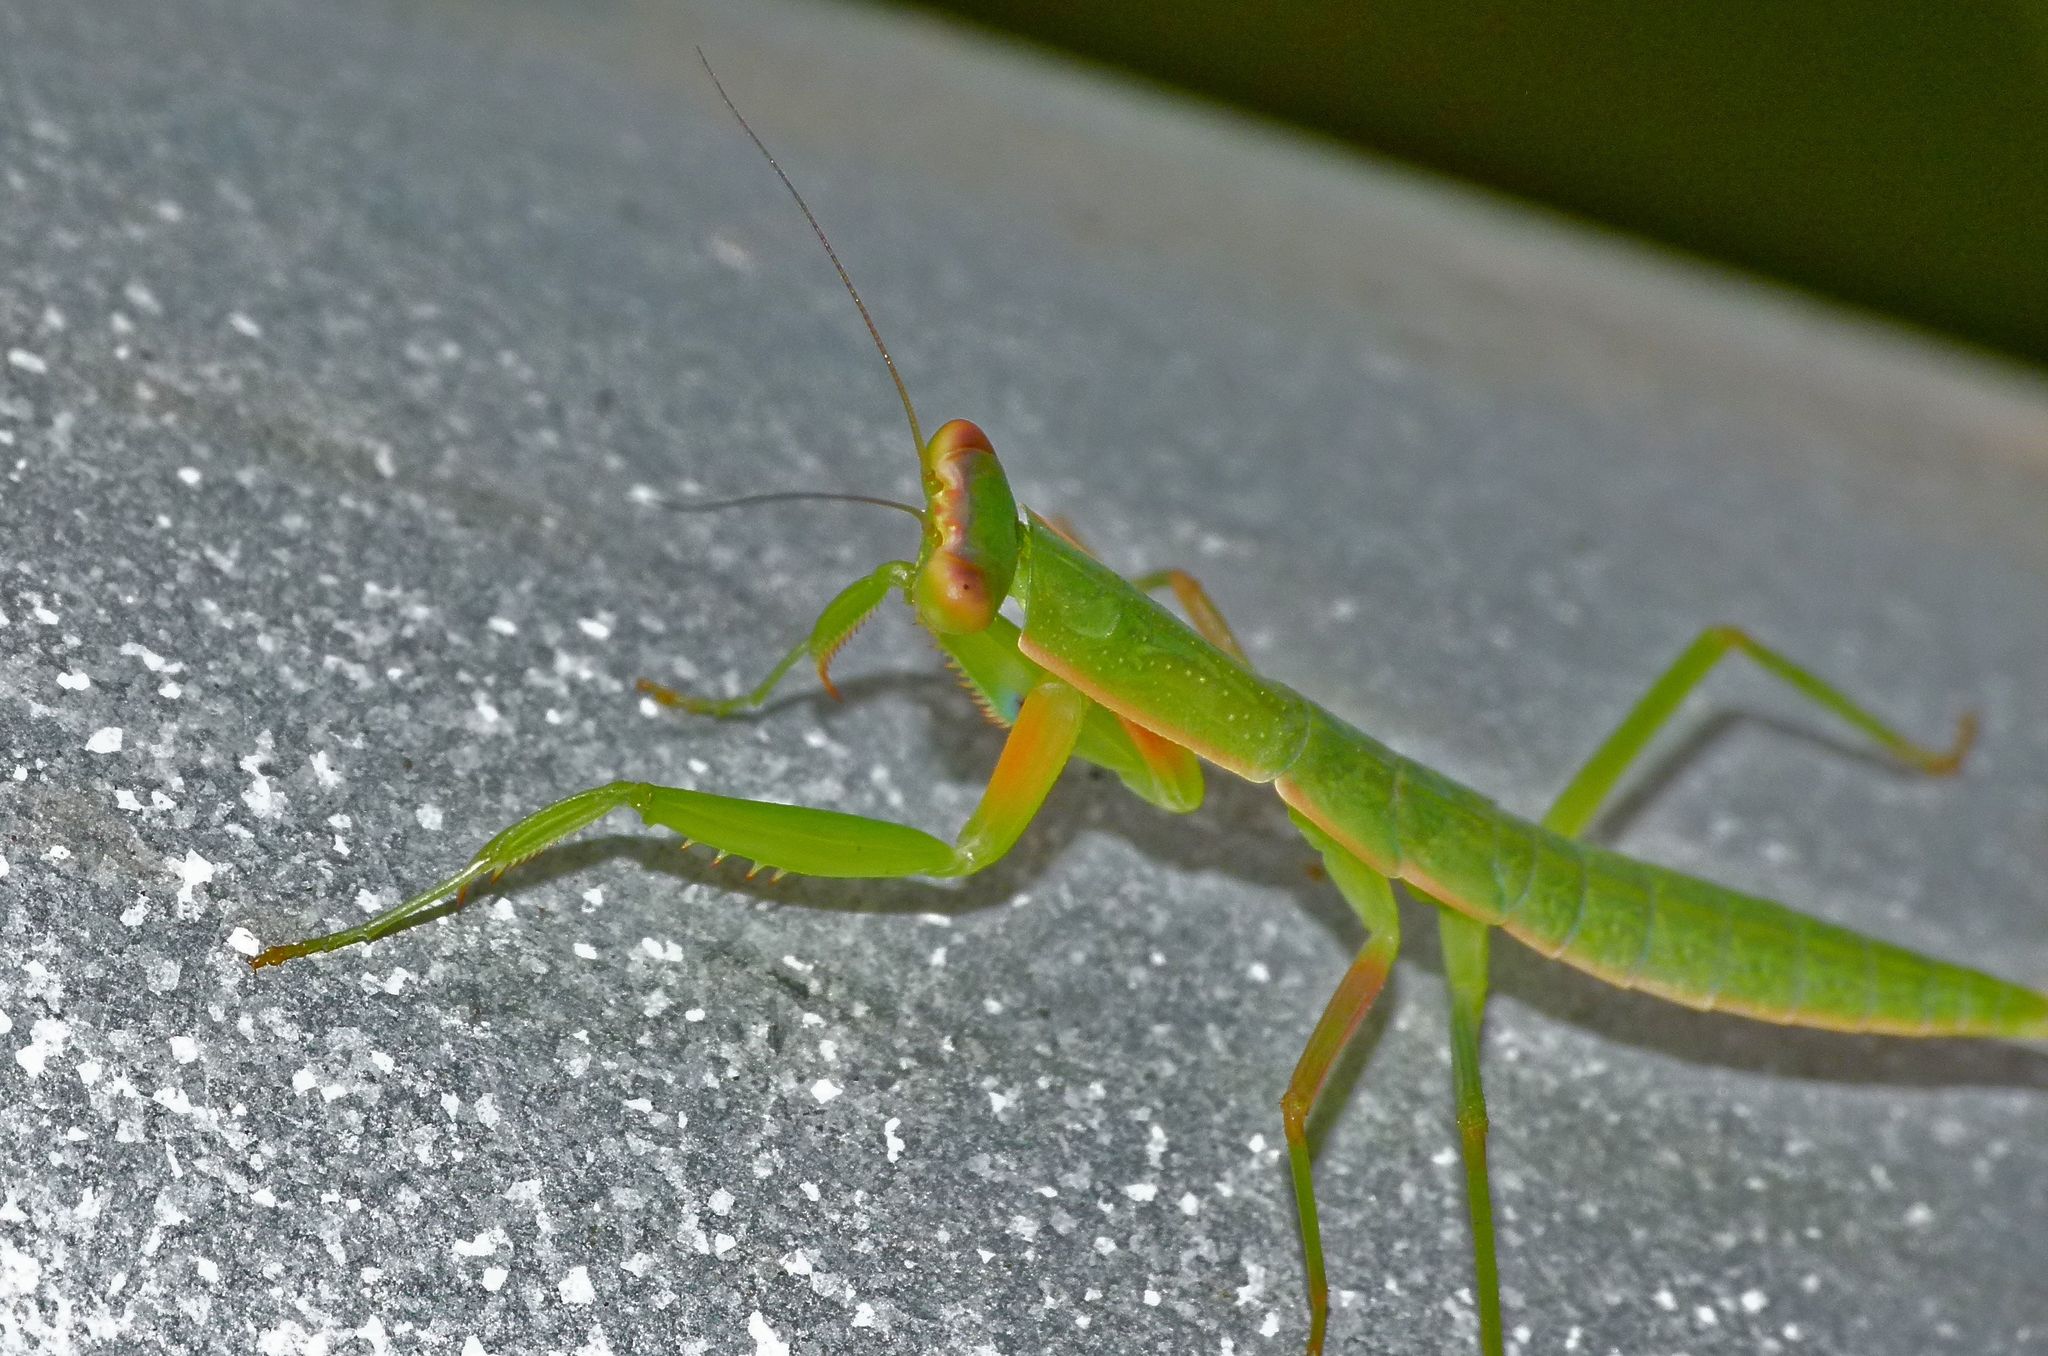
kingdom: Animalia
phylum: Arthropoda
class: Insecta
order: Mantodea
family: Mantidae
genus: Orthodera
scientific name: Orthodera ministralis
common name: Mantis
